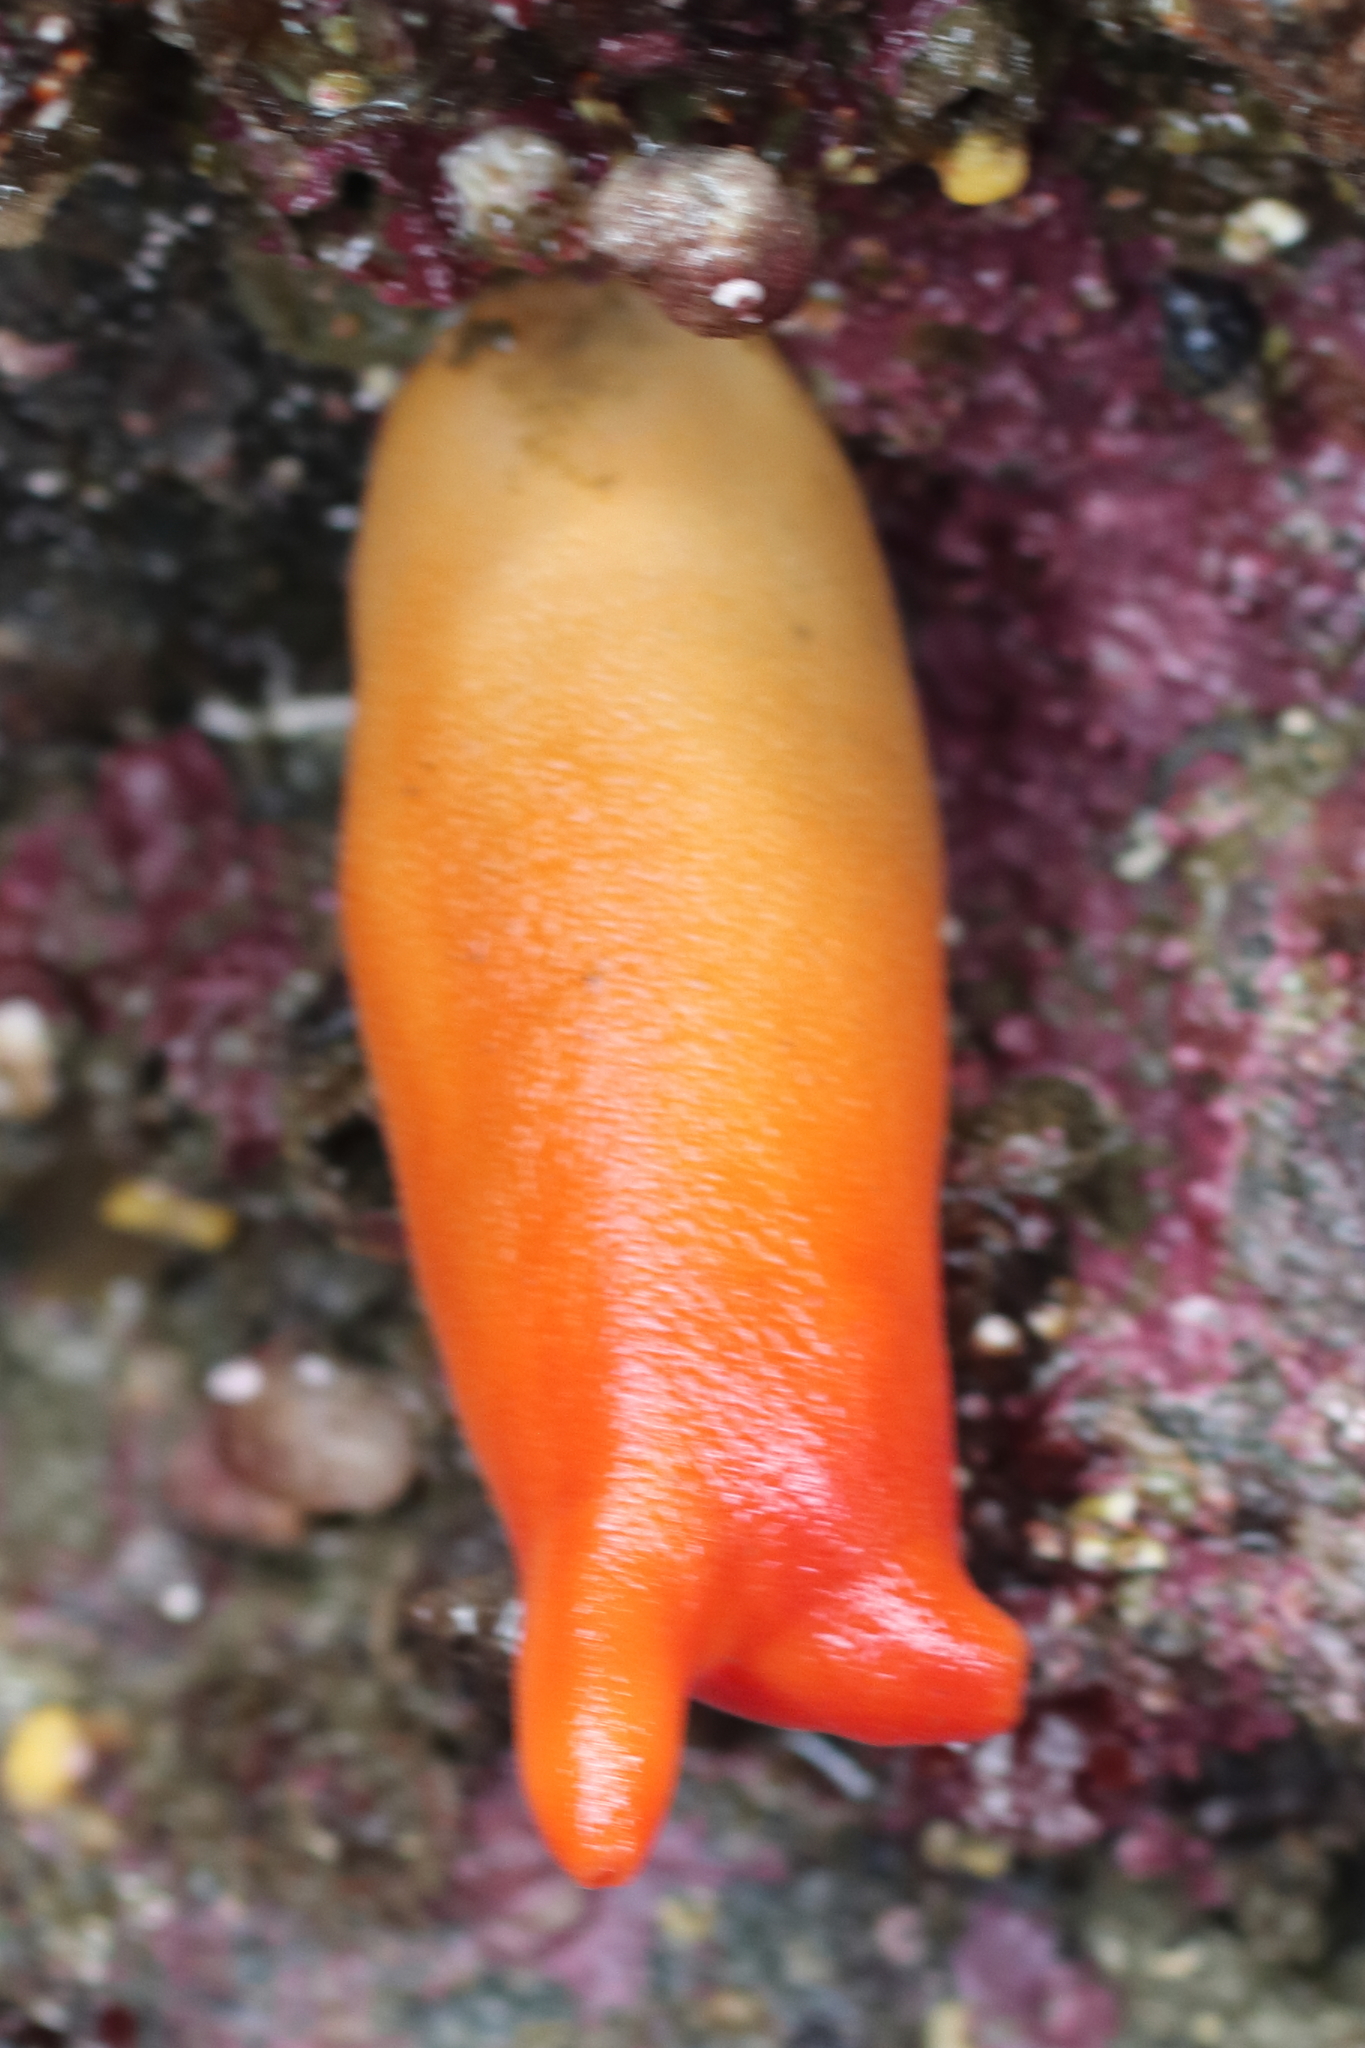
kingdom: Animalia
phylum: Chordata
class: Ascidiacea
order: Stolidobranchia
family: Pyuridae
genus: Halocynthia
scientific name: Halocynthia aurantium
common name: Sea peach
